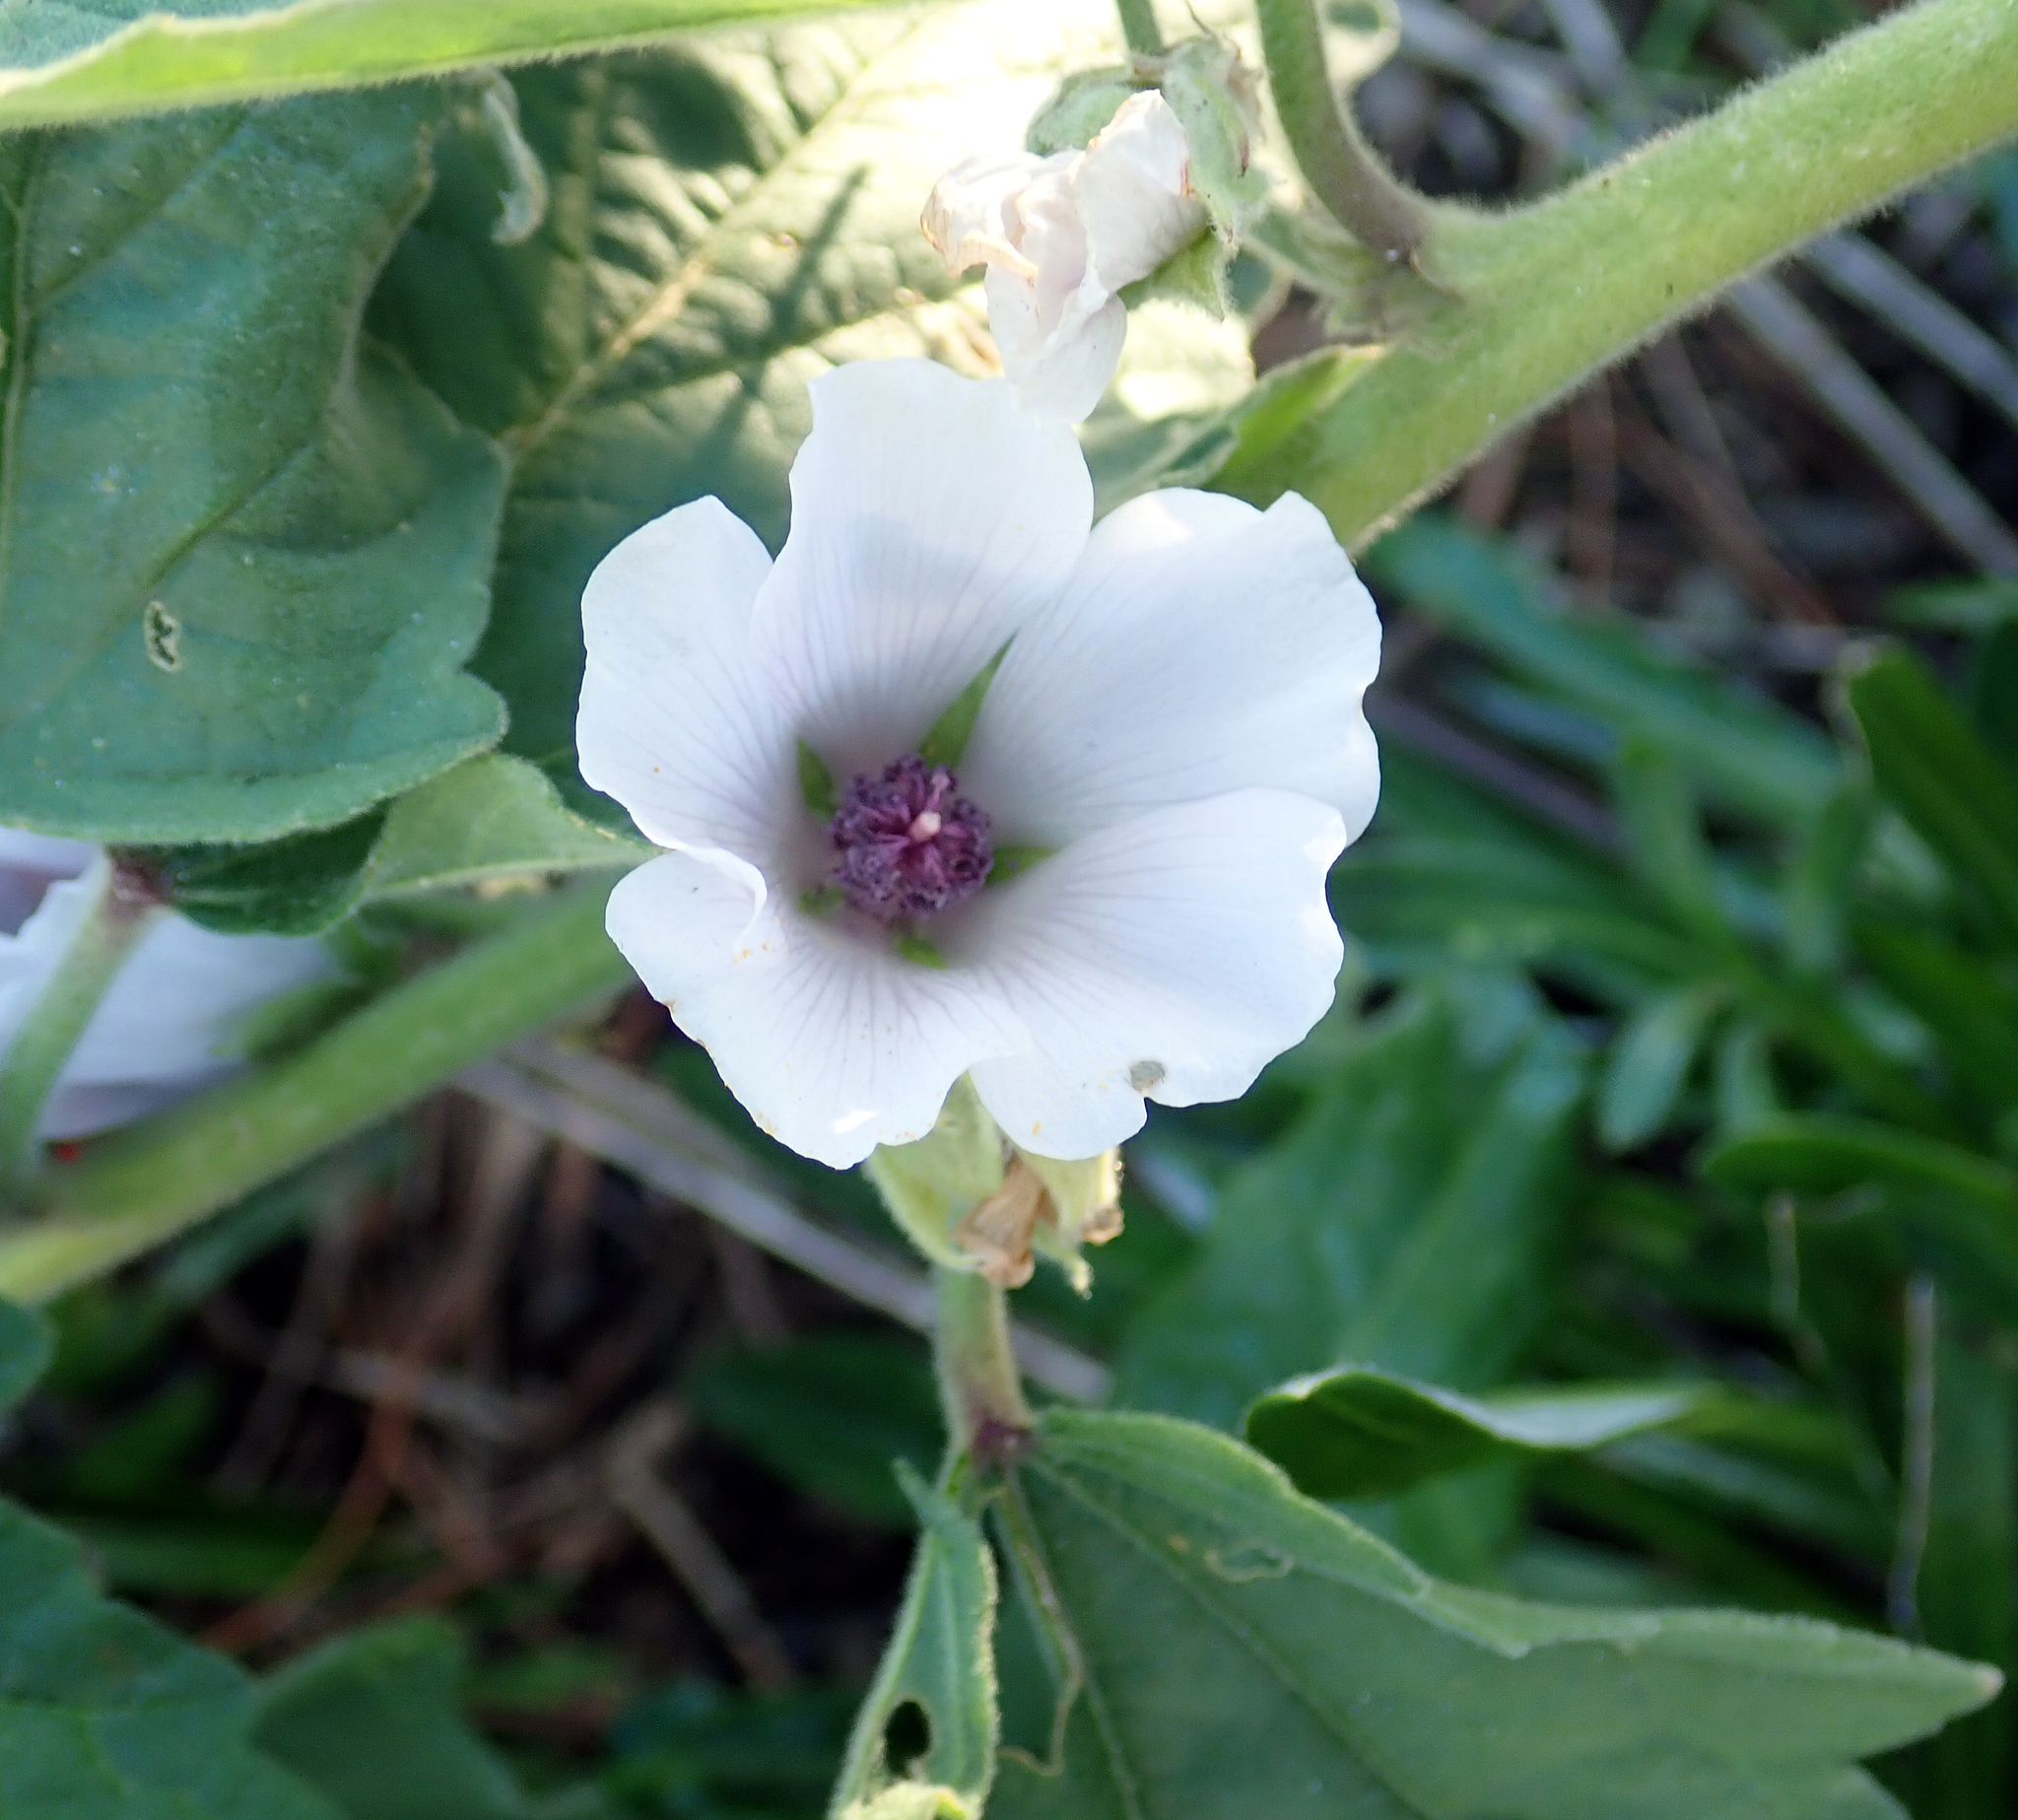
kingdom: Plantae
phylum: Tracheophyta
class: Magnoliopsida
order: Malvales
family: Malvaceae
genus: Althaea
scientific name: Althaea officinalis
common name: Marsh-mallow
